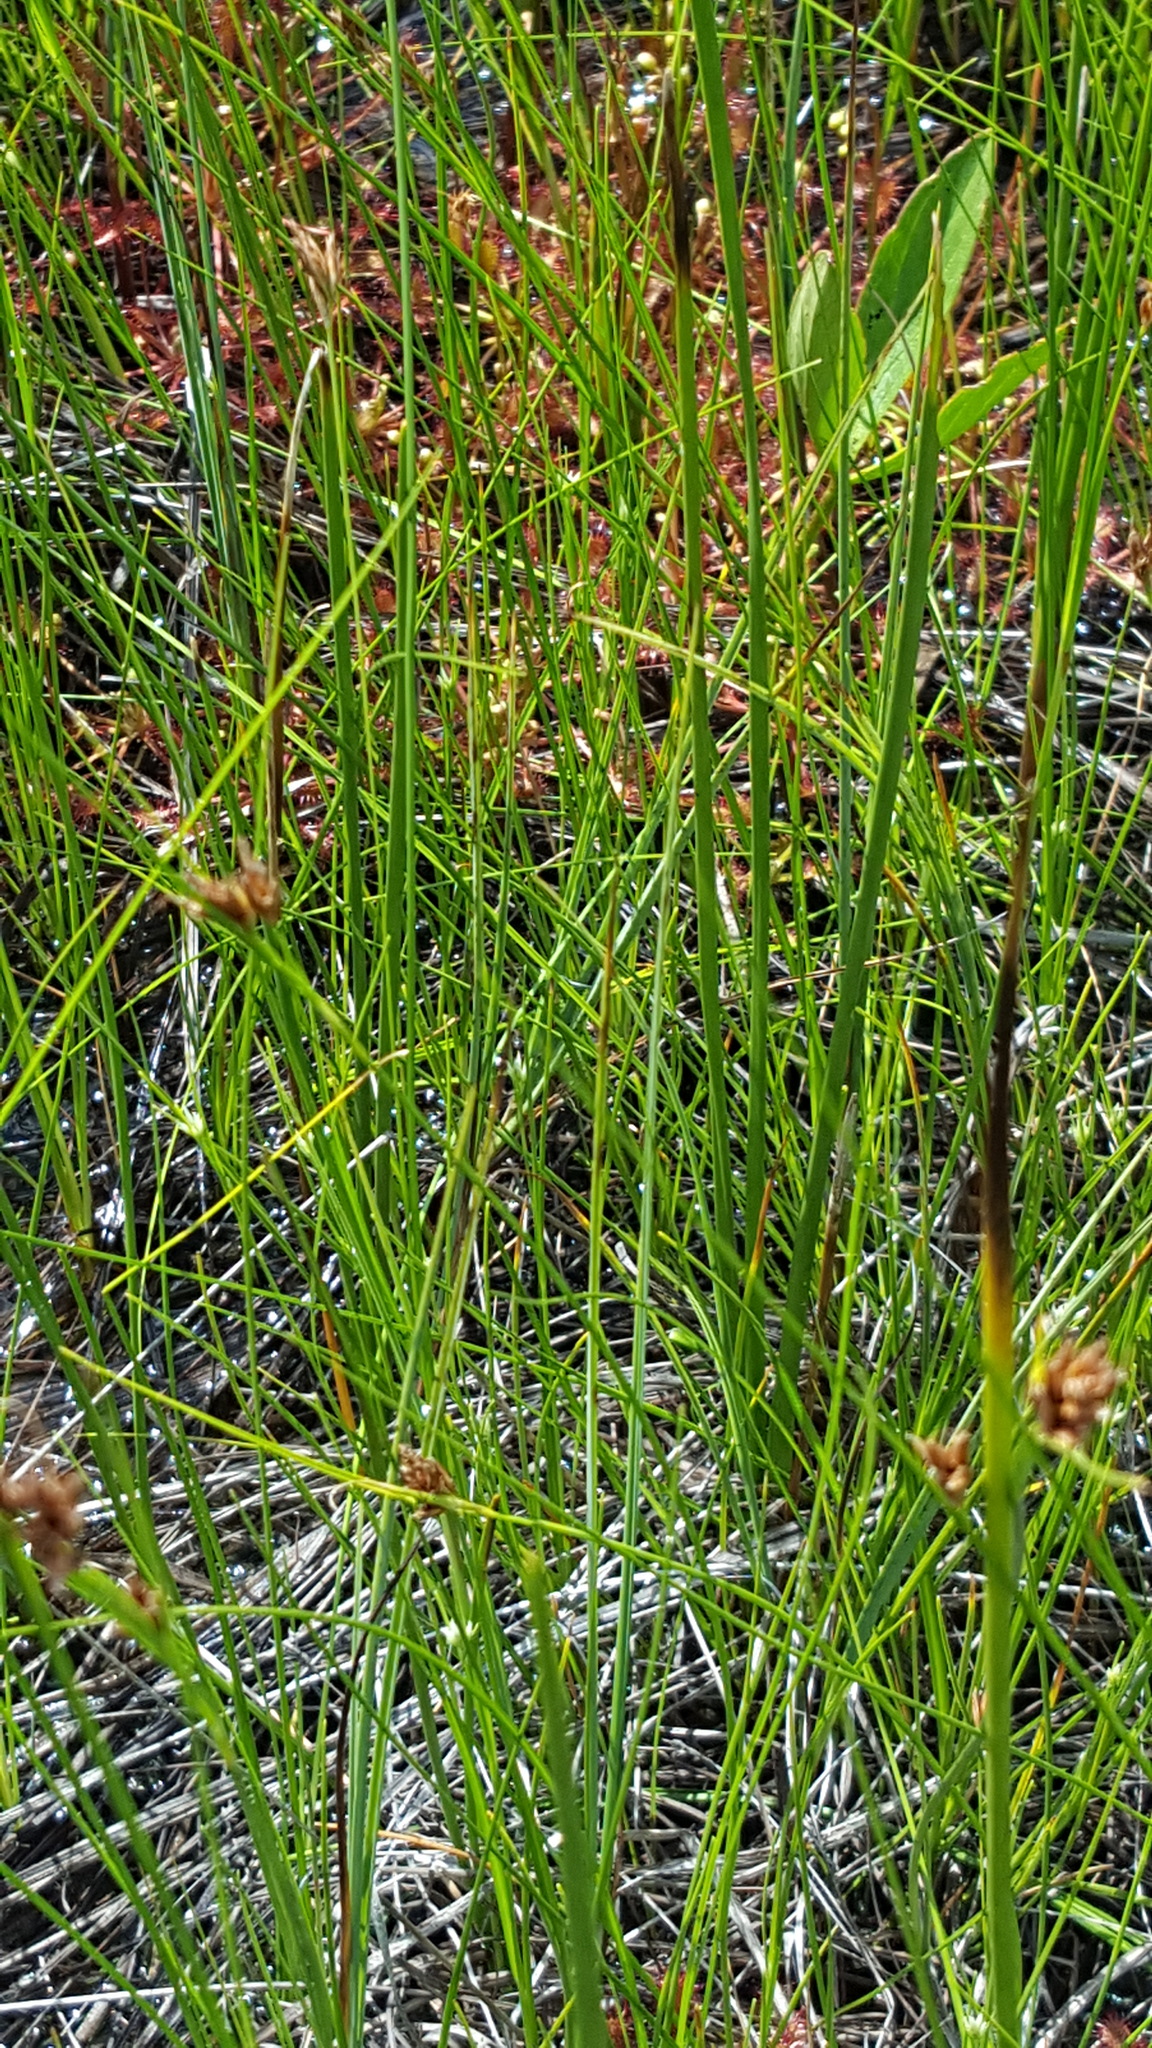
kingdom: Plantae
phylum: Tracheophyta
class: Liliopsida
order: Poales
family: Cyperaceae
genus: Rhynchospora
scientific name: Rhynchospora fusca
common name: Brown beak-sedge
